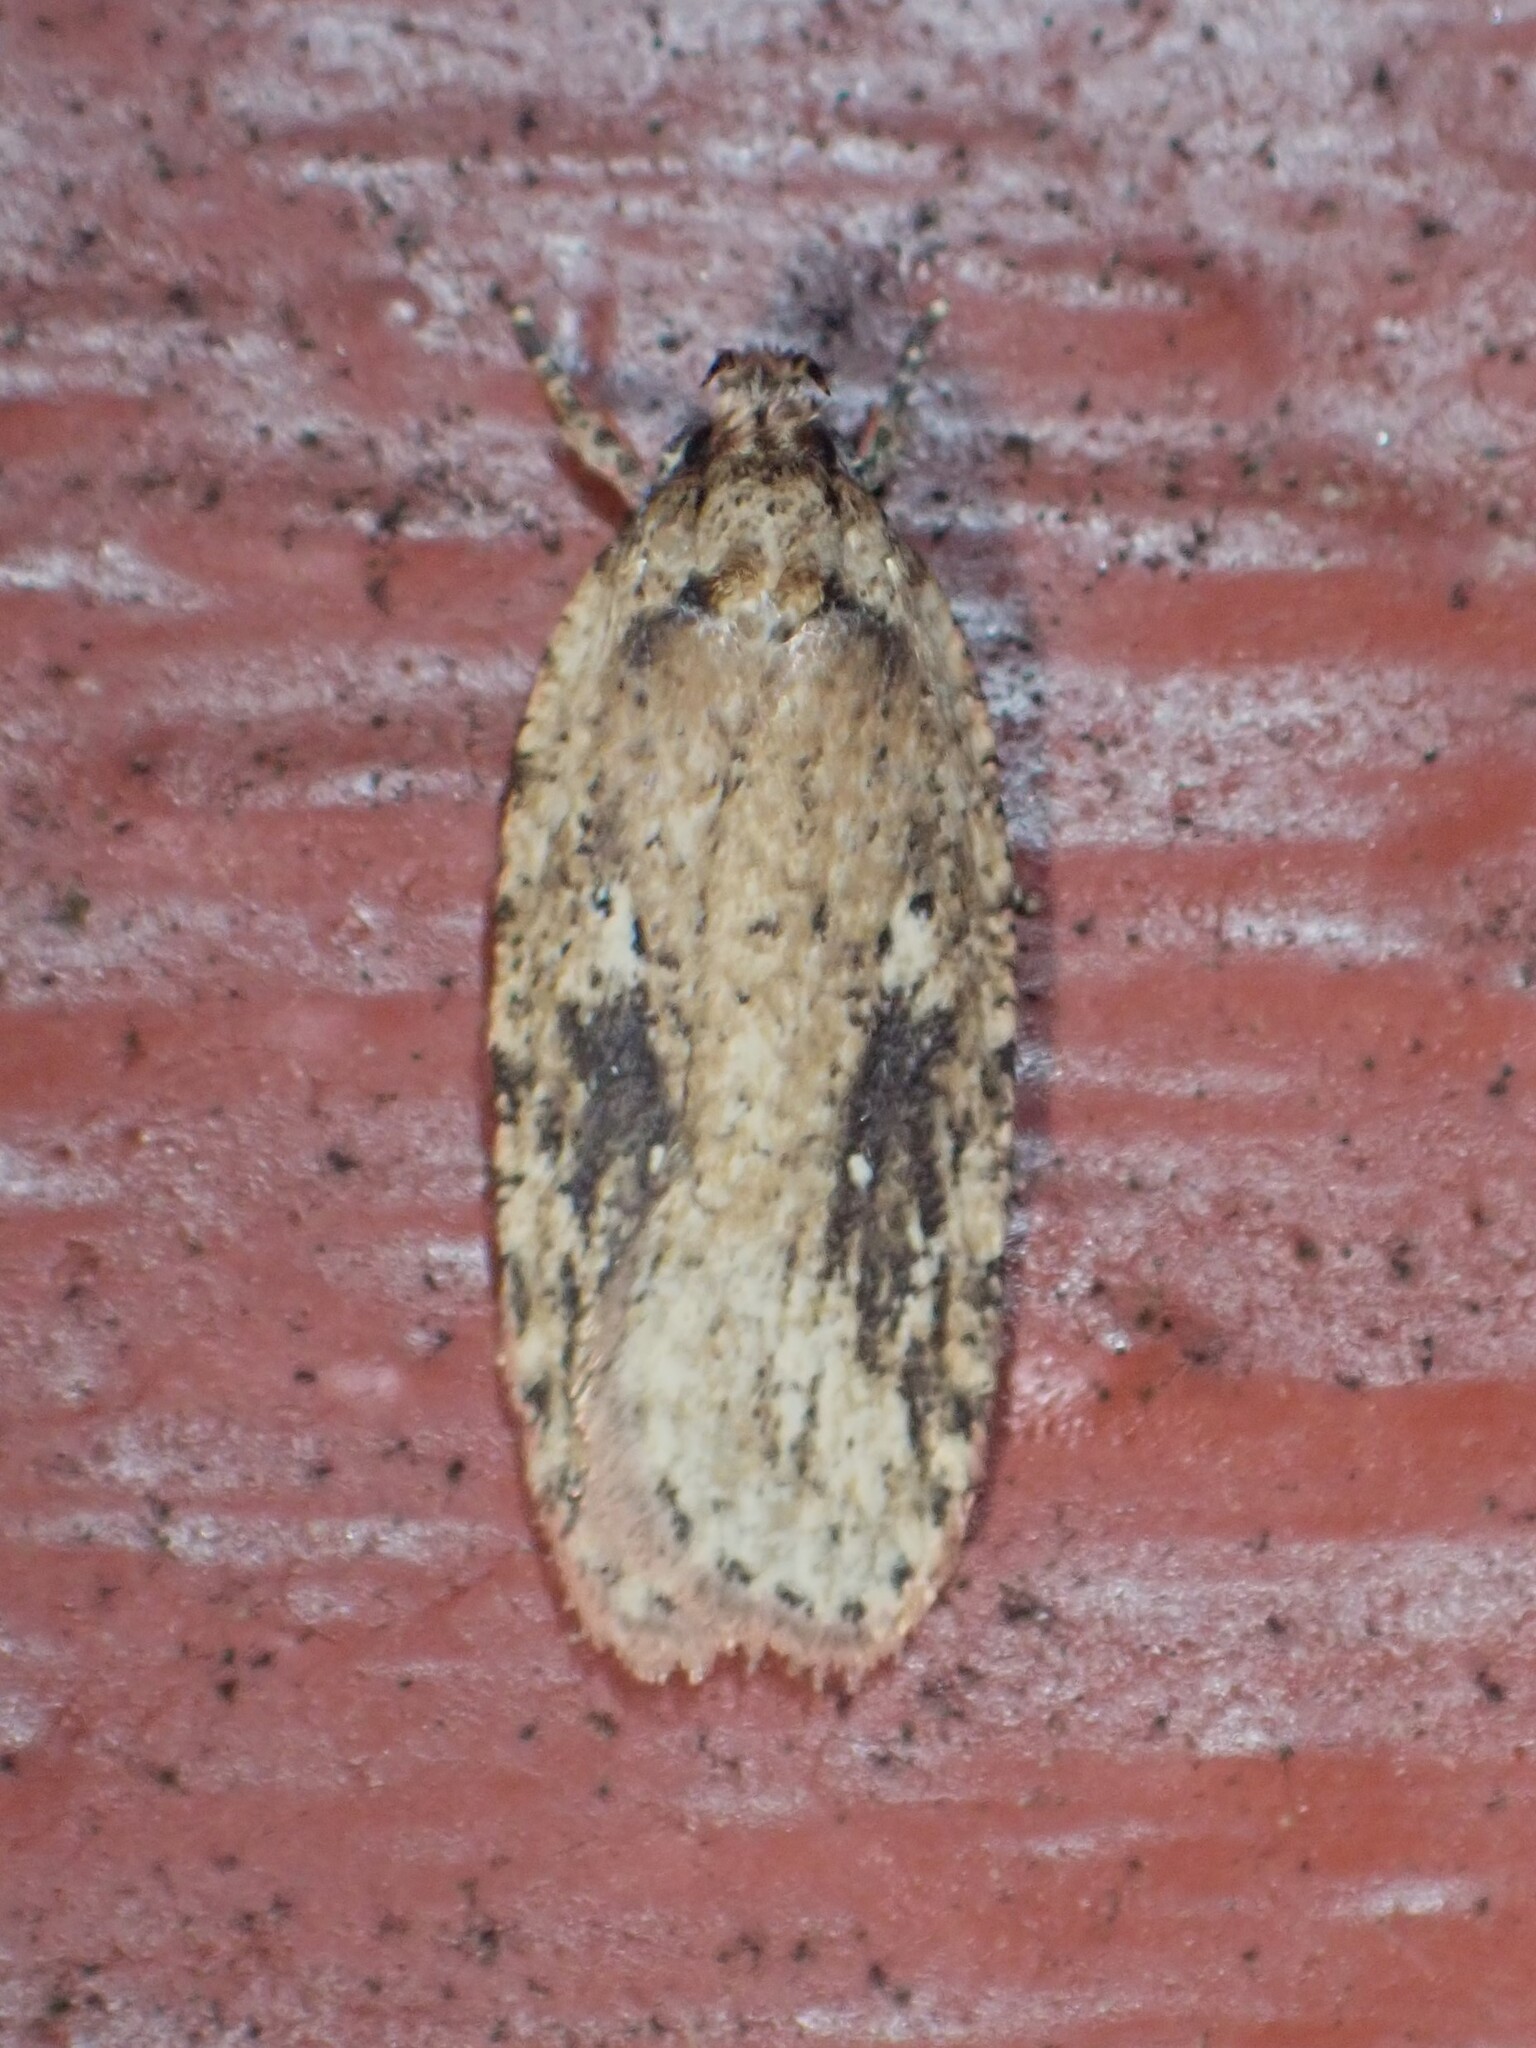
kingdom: Animalia
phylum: Arthropoda
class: Insecta
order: Lepidoptera
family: Depressariidae
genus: Agonopterix
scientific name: Agonopterix pulvipennella
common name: Goldenrod leafffolder
